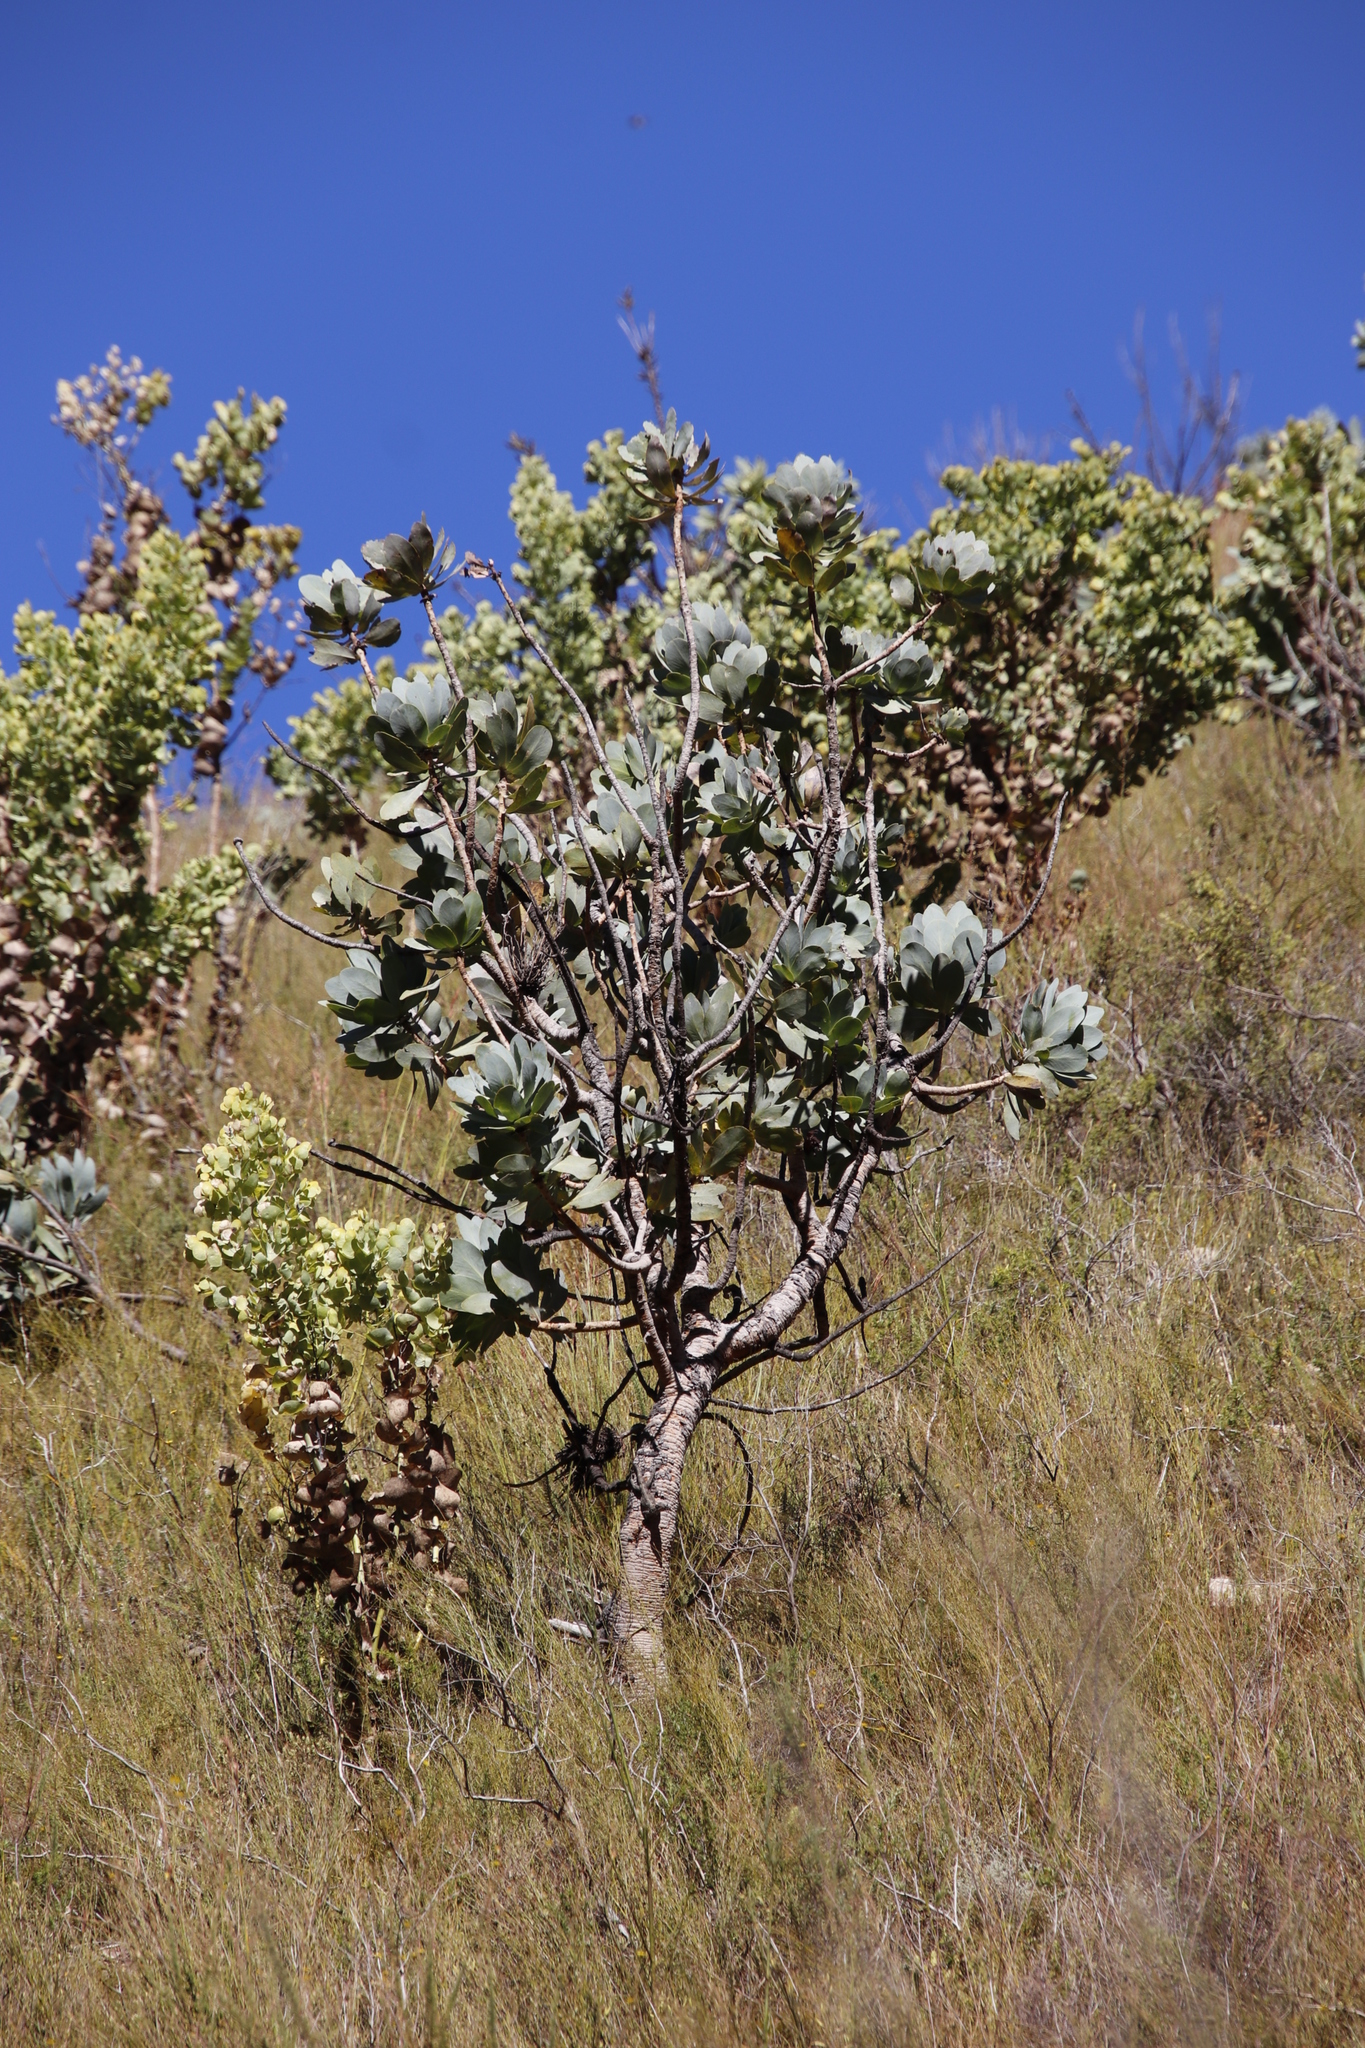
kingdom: Plantae
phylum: Tracheophyta
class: Magnoliopsida
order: Proteales
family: Proteaceae
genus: Protea
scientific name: Protea nitida
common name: Tree protea
